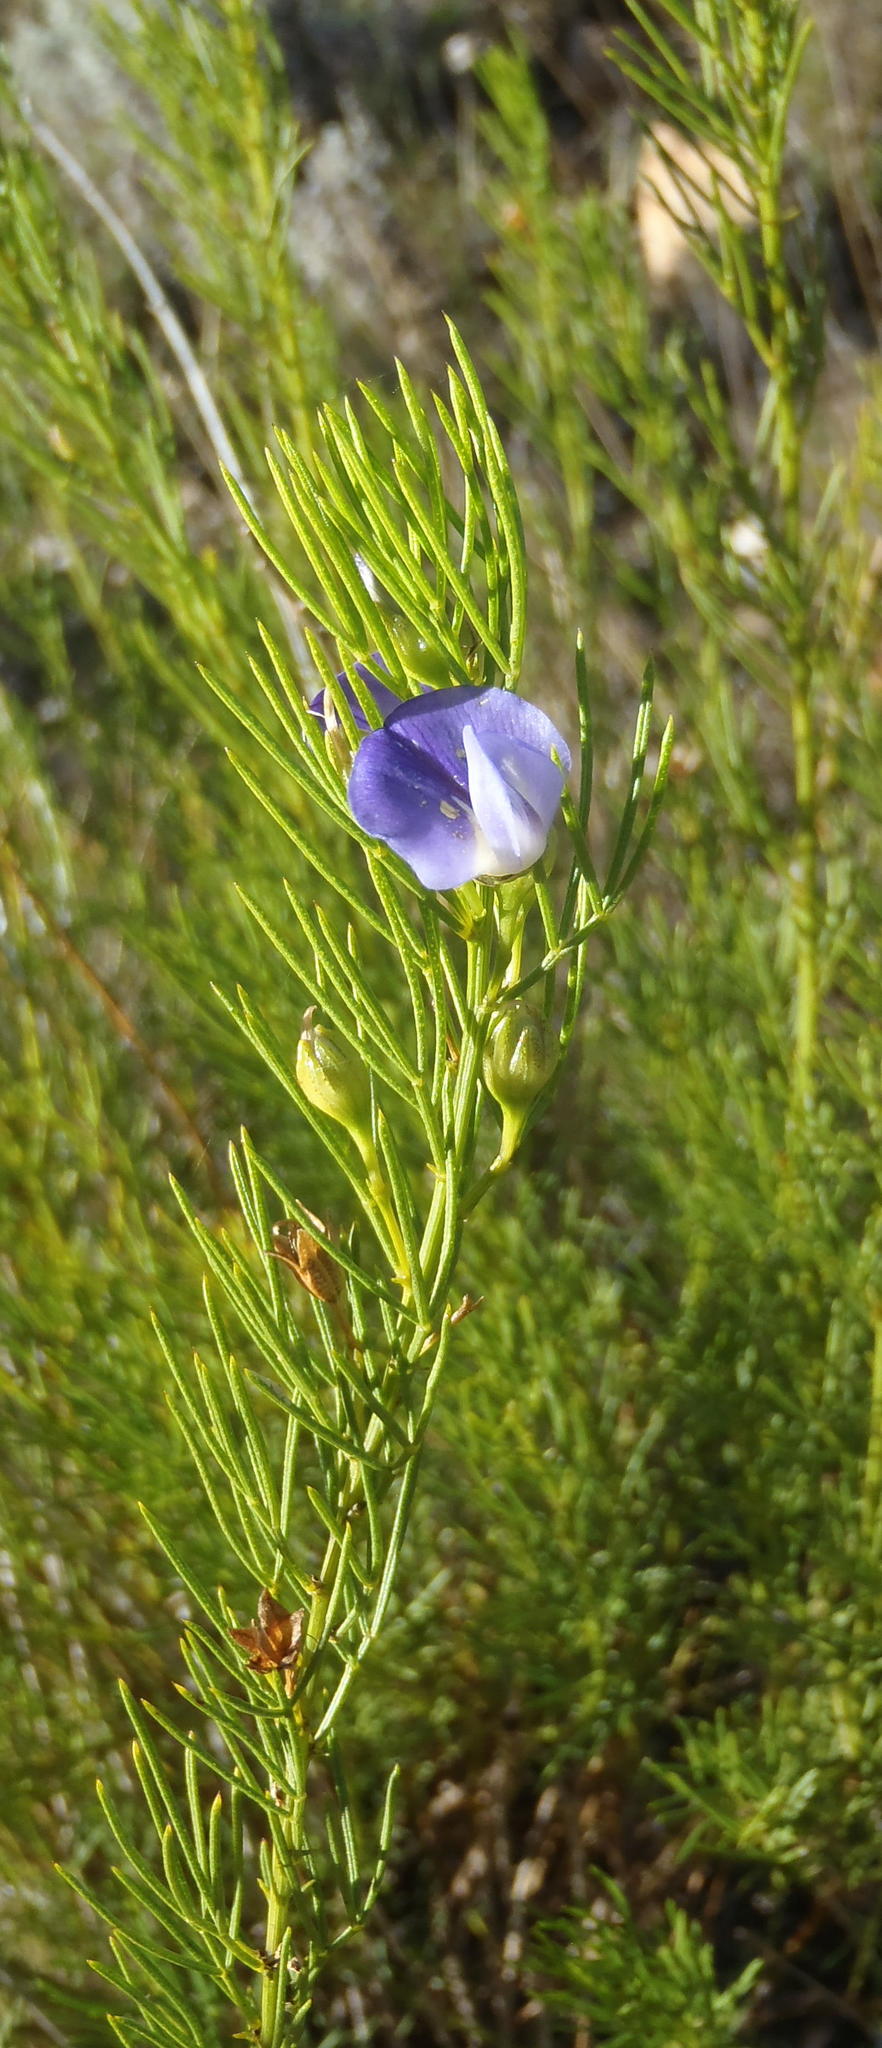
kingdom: Plantae
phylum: Tracheophyta
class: Magnoliopsida
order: Fabales
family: Fabaceae
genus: Psoralea
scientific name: Psoralea laevigata
